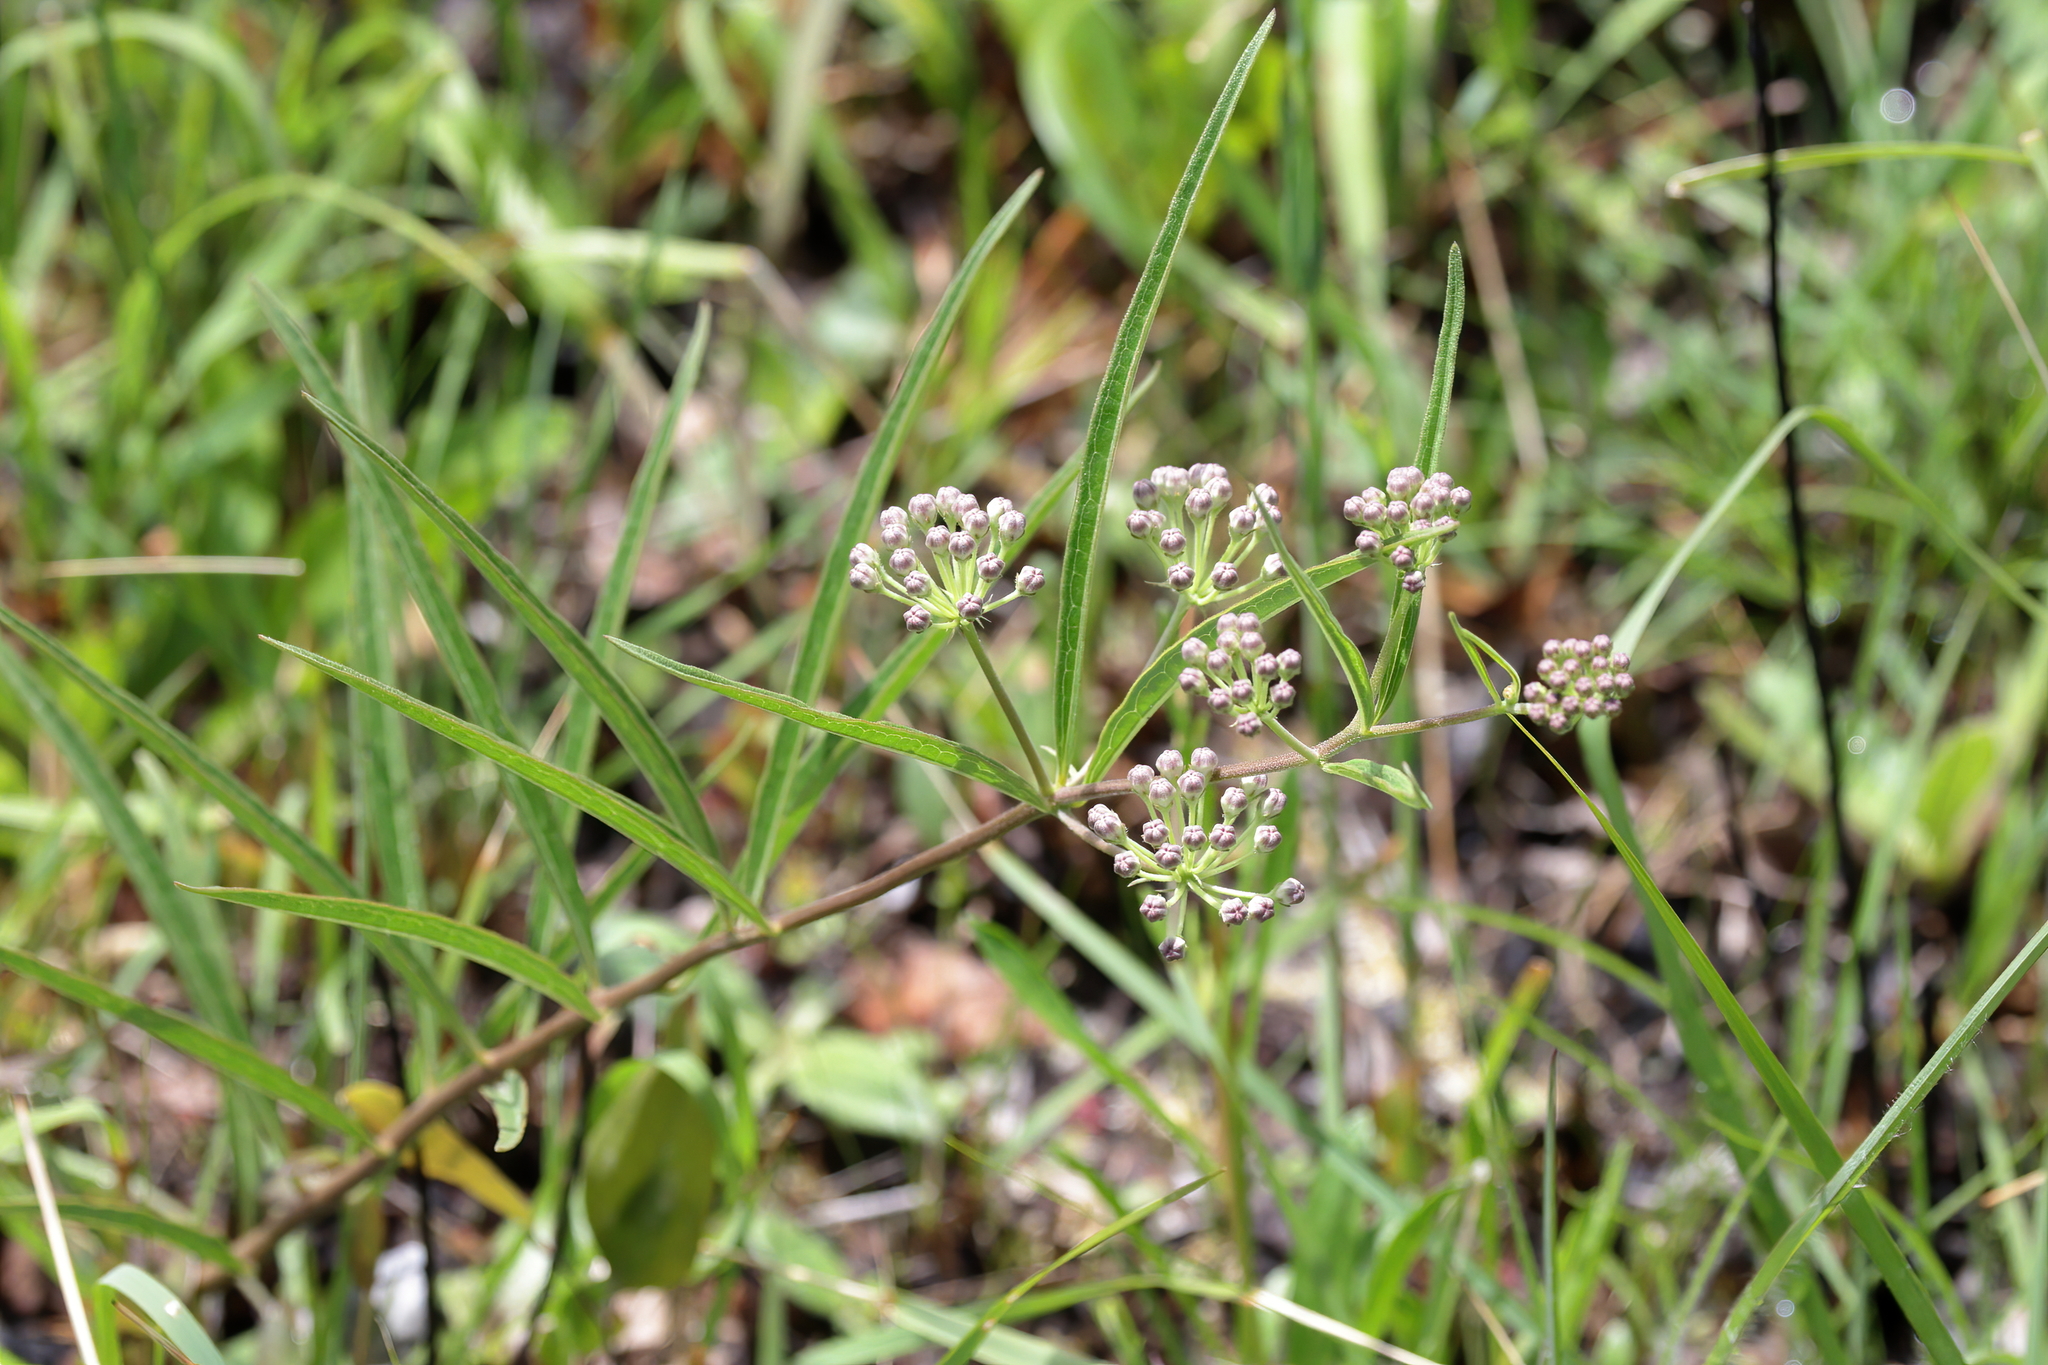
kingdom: Plantae
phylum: Tracheophyta
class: Magnoliopsida
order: Gentianales
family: Apocynaceae
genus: Asclepias
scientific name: Asclepias longifolia
